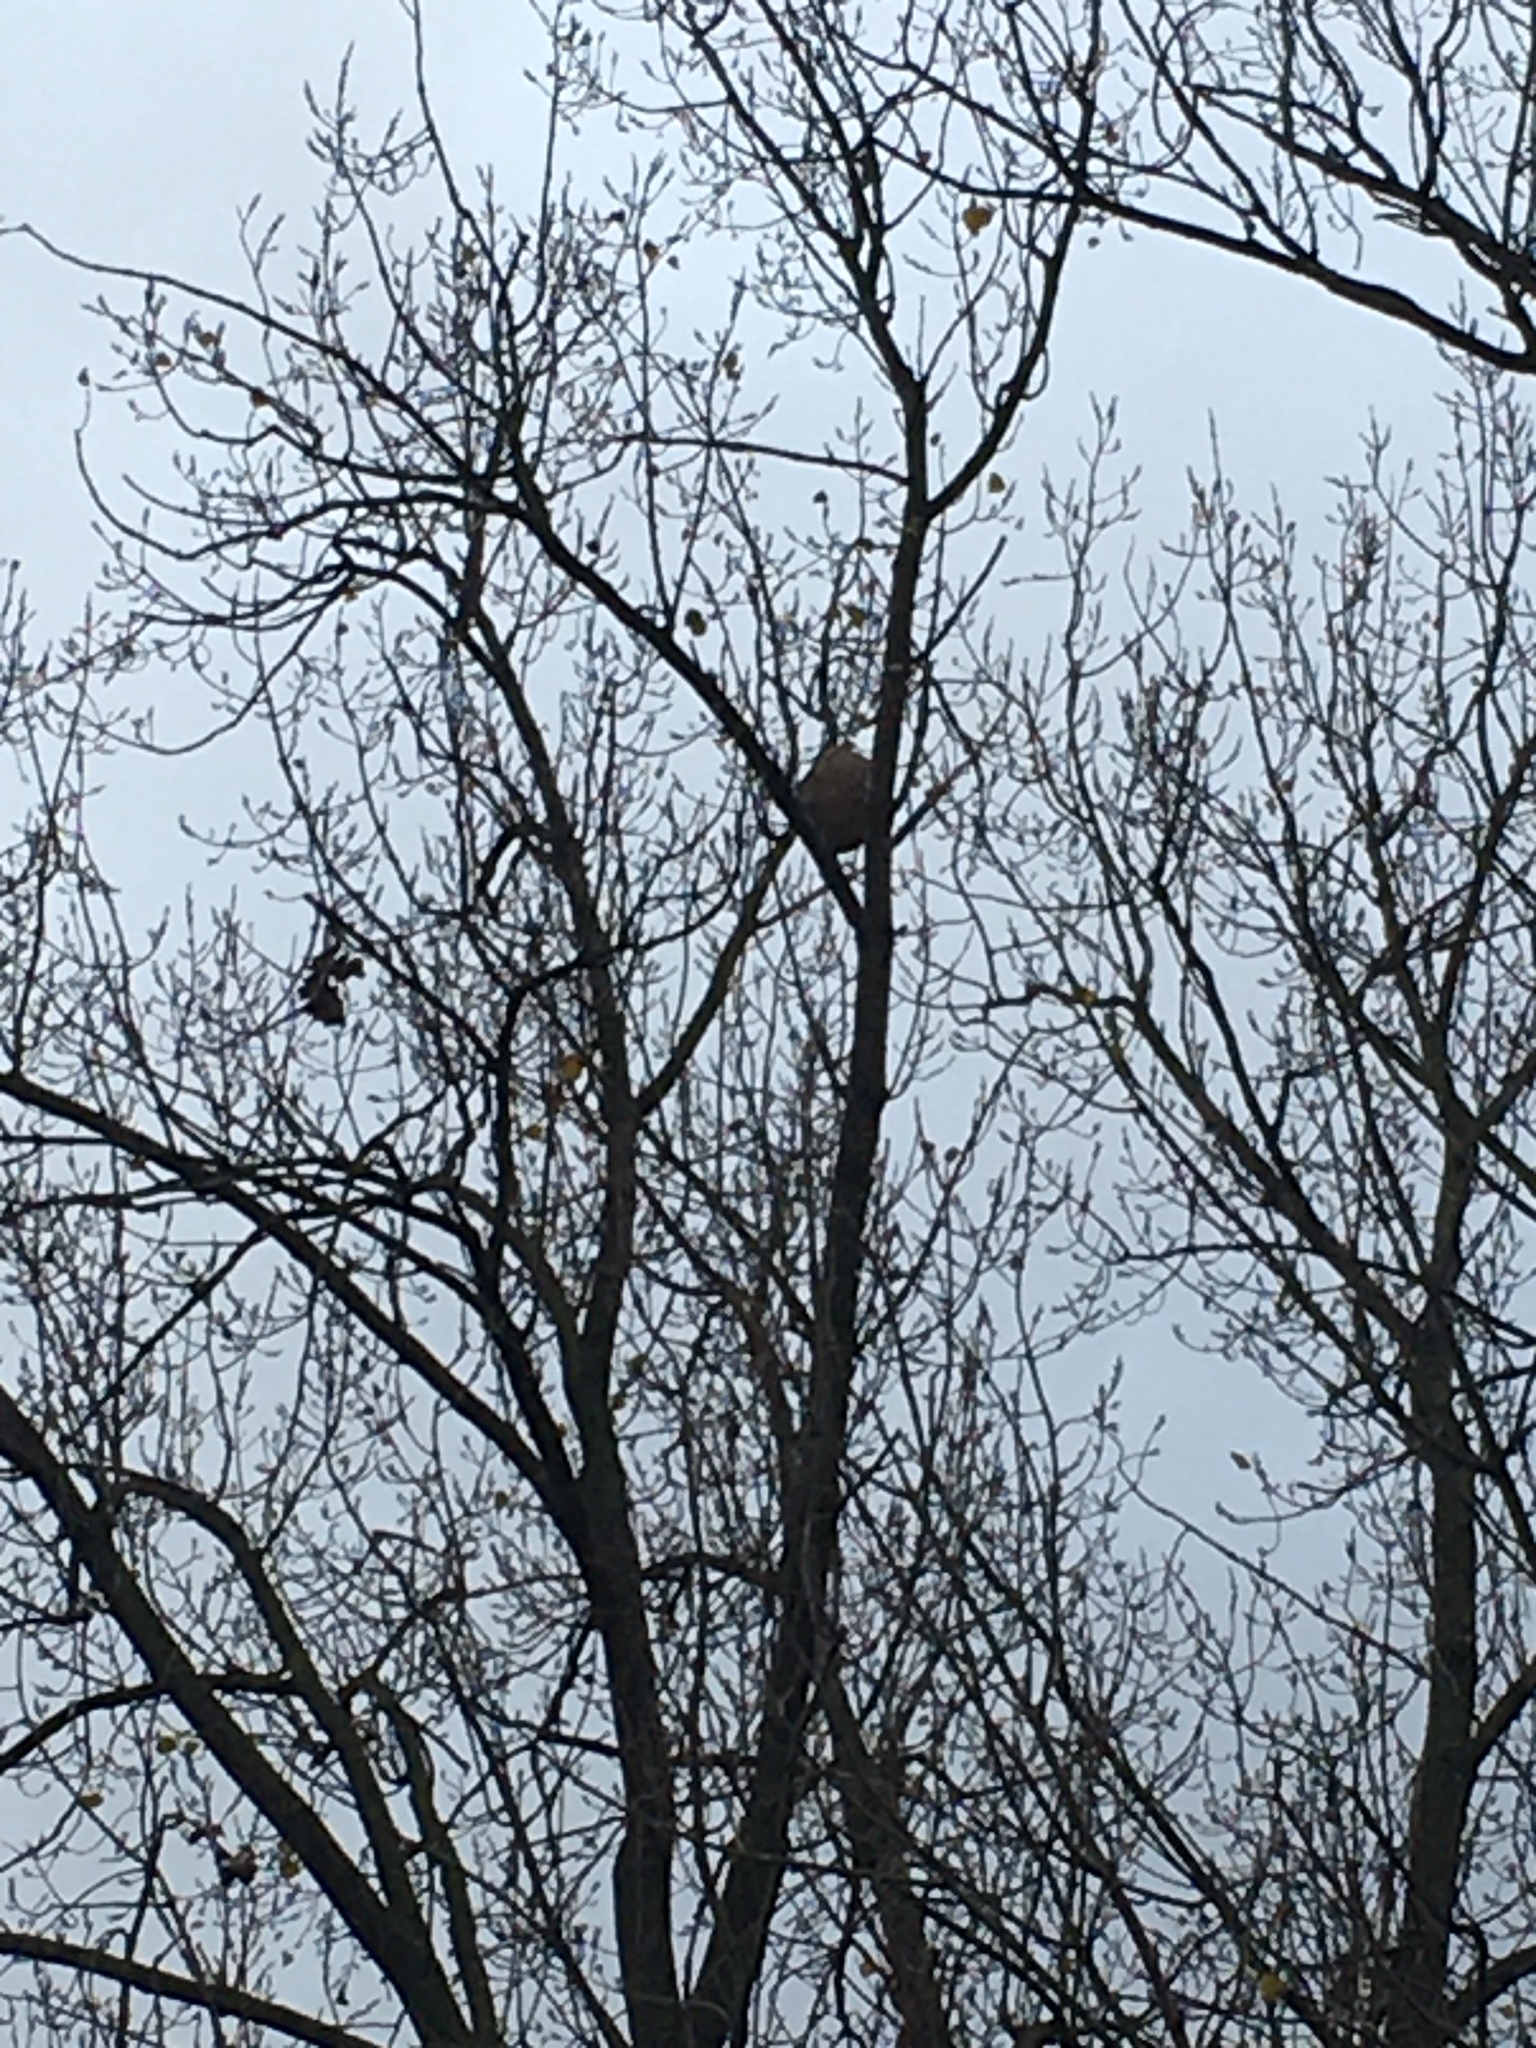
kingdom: Animalia
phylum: Arthropoda
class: Insecta
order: Hymenoptera
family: Vespidae
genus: Vespa
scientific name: Vespa velutina
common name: Asian hornet
